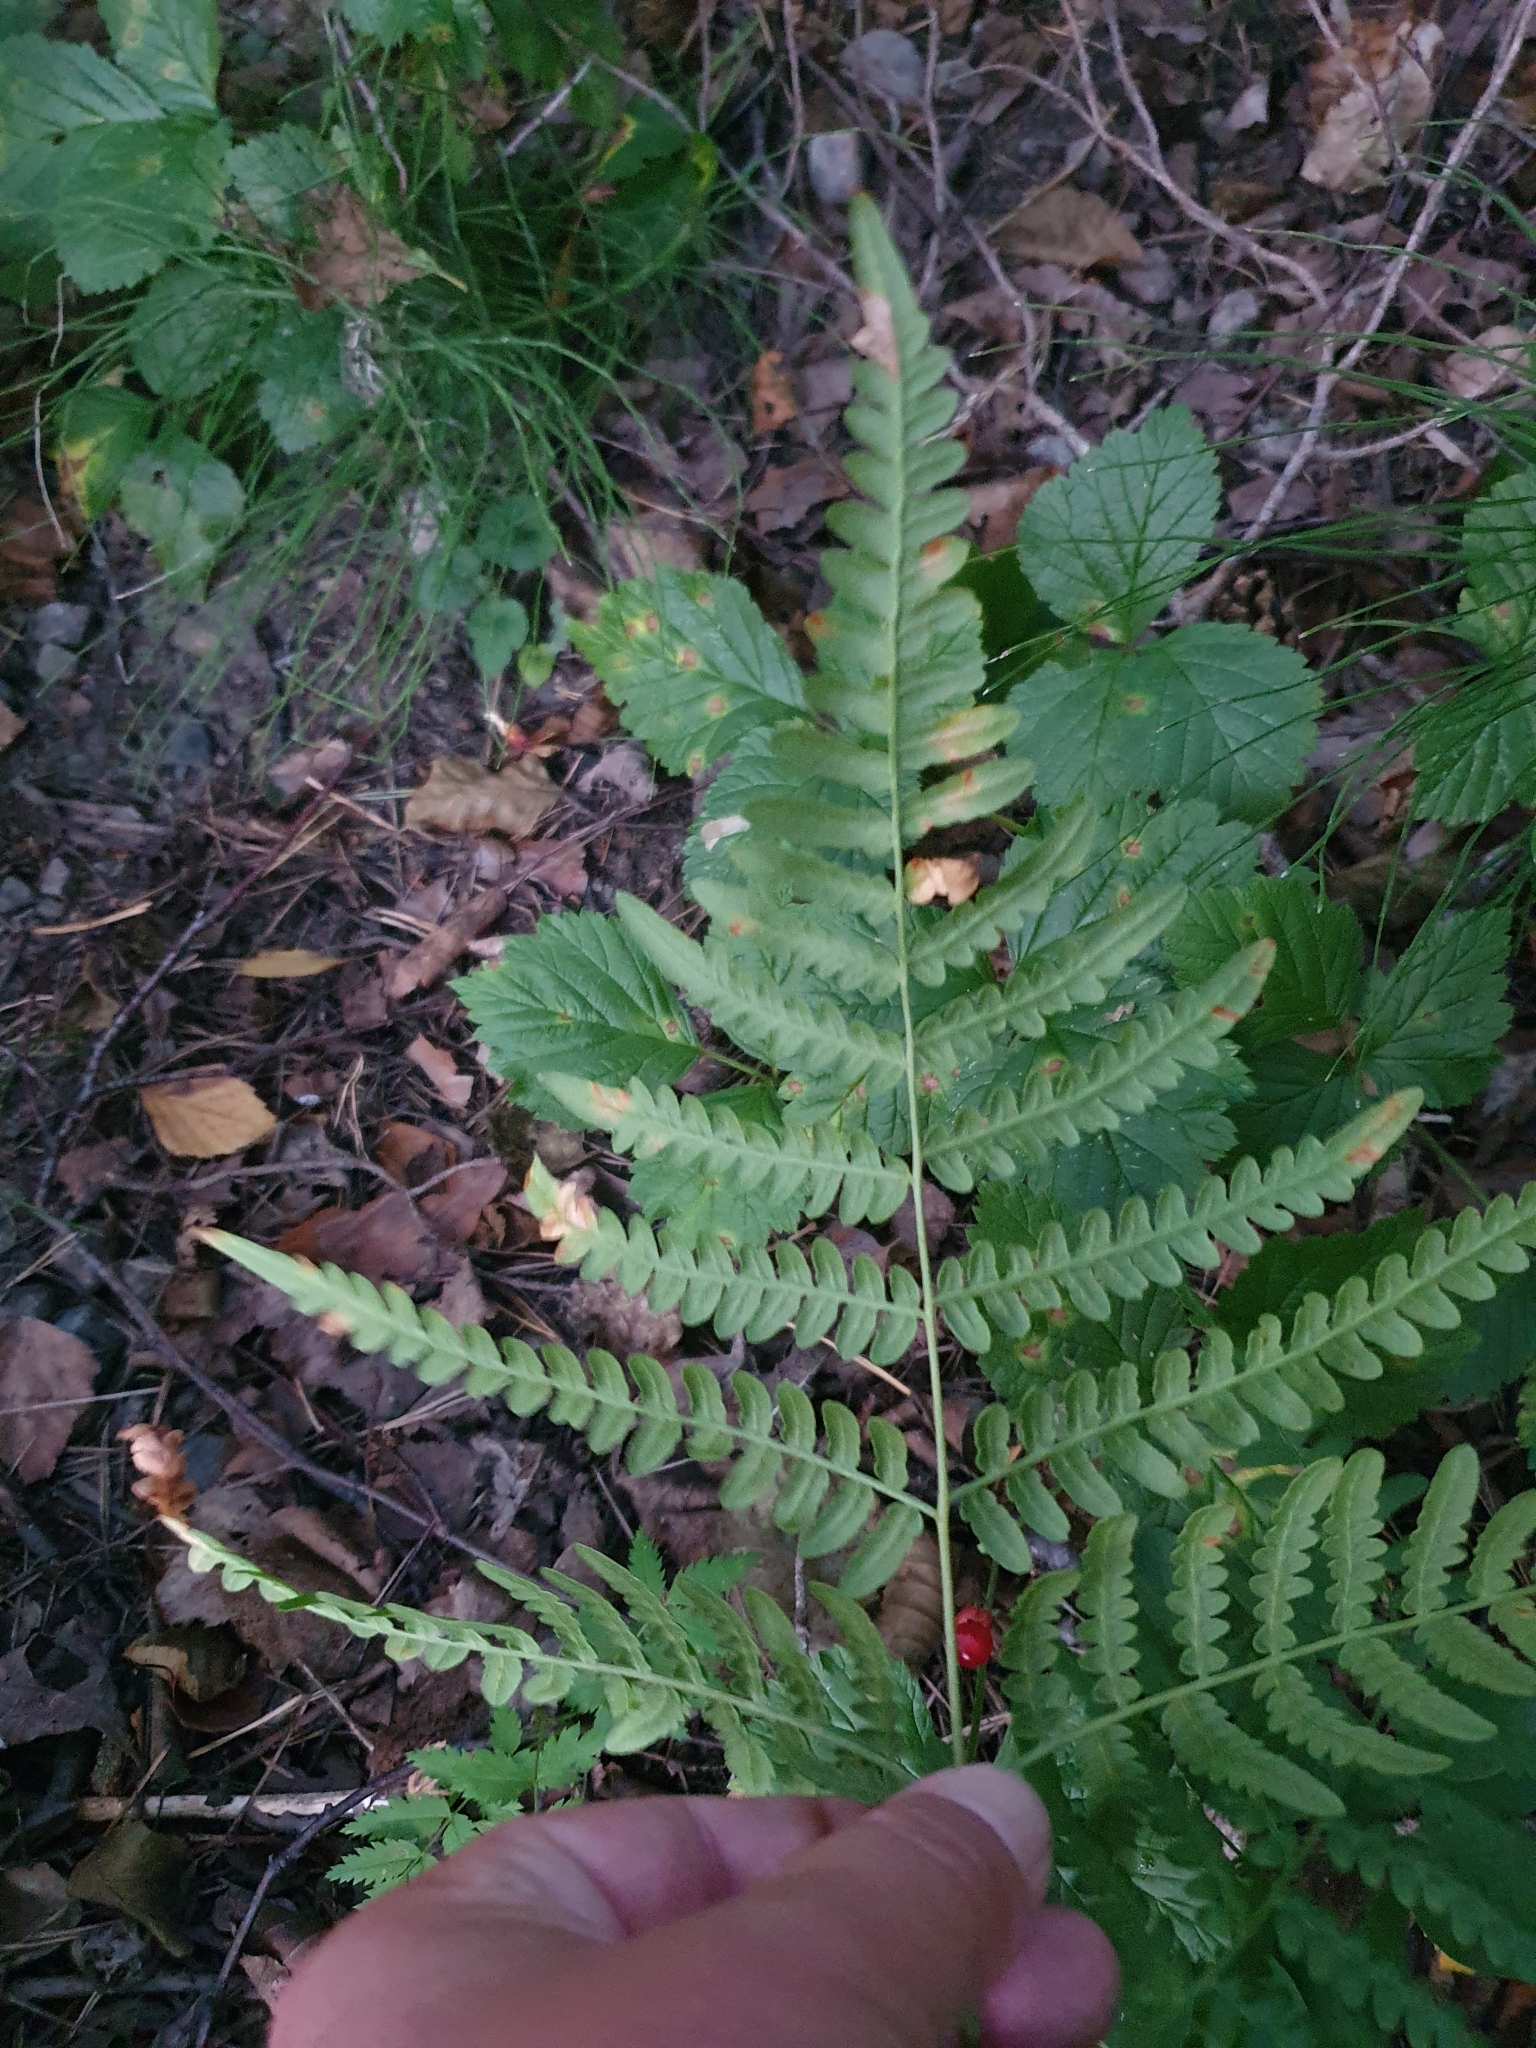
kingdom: Plantae
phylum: Tracheophyta
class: Polypodiopsida
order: Polypodiales
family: Dennstaedtiaceae
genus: Pteridium
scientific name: Pteridium aquilinum
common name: Bracken
